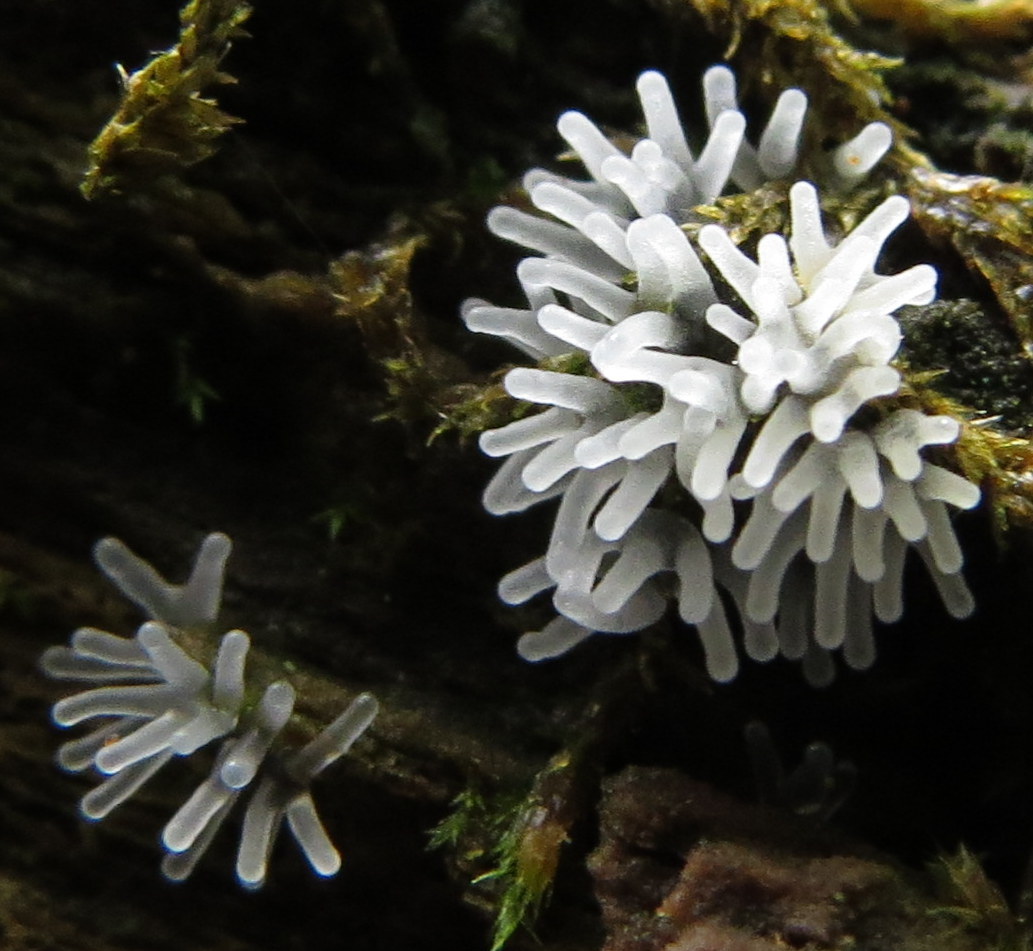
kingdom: Protozoa
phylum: Mycetozoa
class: Protosteliomycetes
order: Ceratiomyxales
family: Ceratiomyxaceae
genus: Ceratiomyxa
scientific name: Ceratiomyxa fruticulosa
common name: Honeycomb coral slime mold
